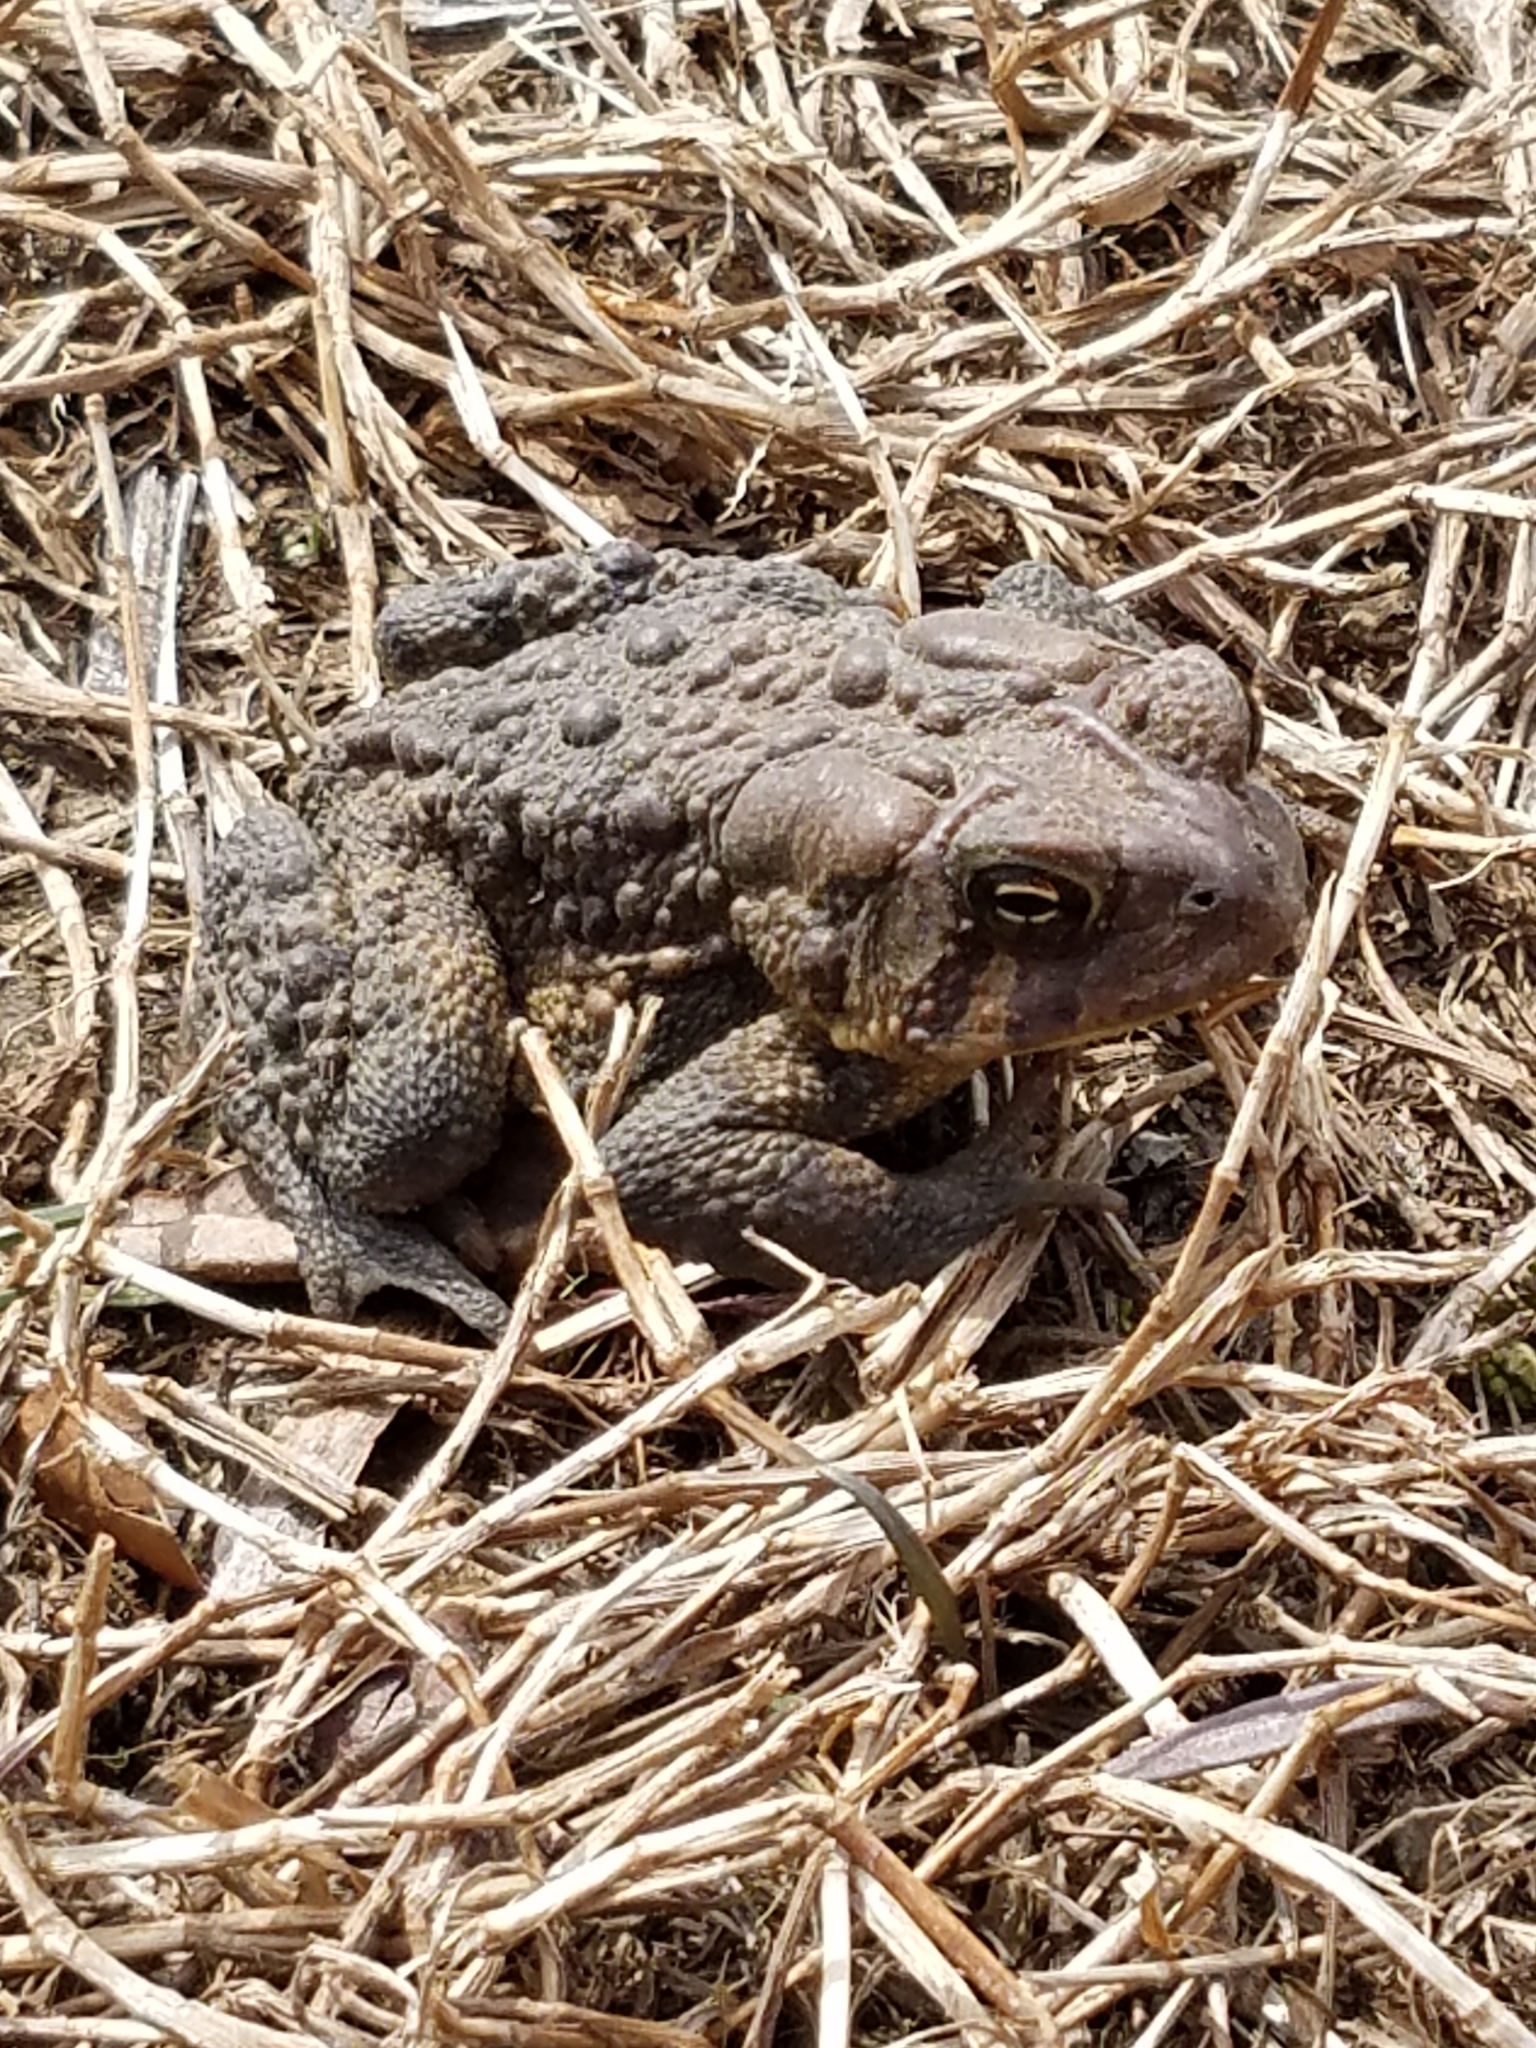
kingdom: Animalia
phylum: Chordata
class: Amphibia
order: Anura
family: Bufonidae
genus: Anaxyrus
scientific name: Anaxyrus americanus
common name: American toad
